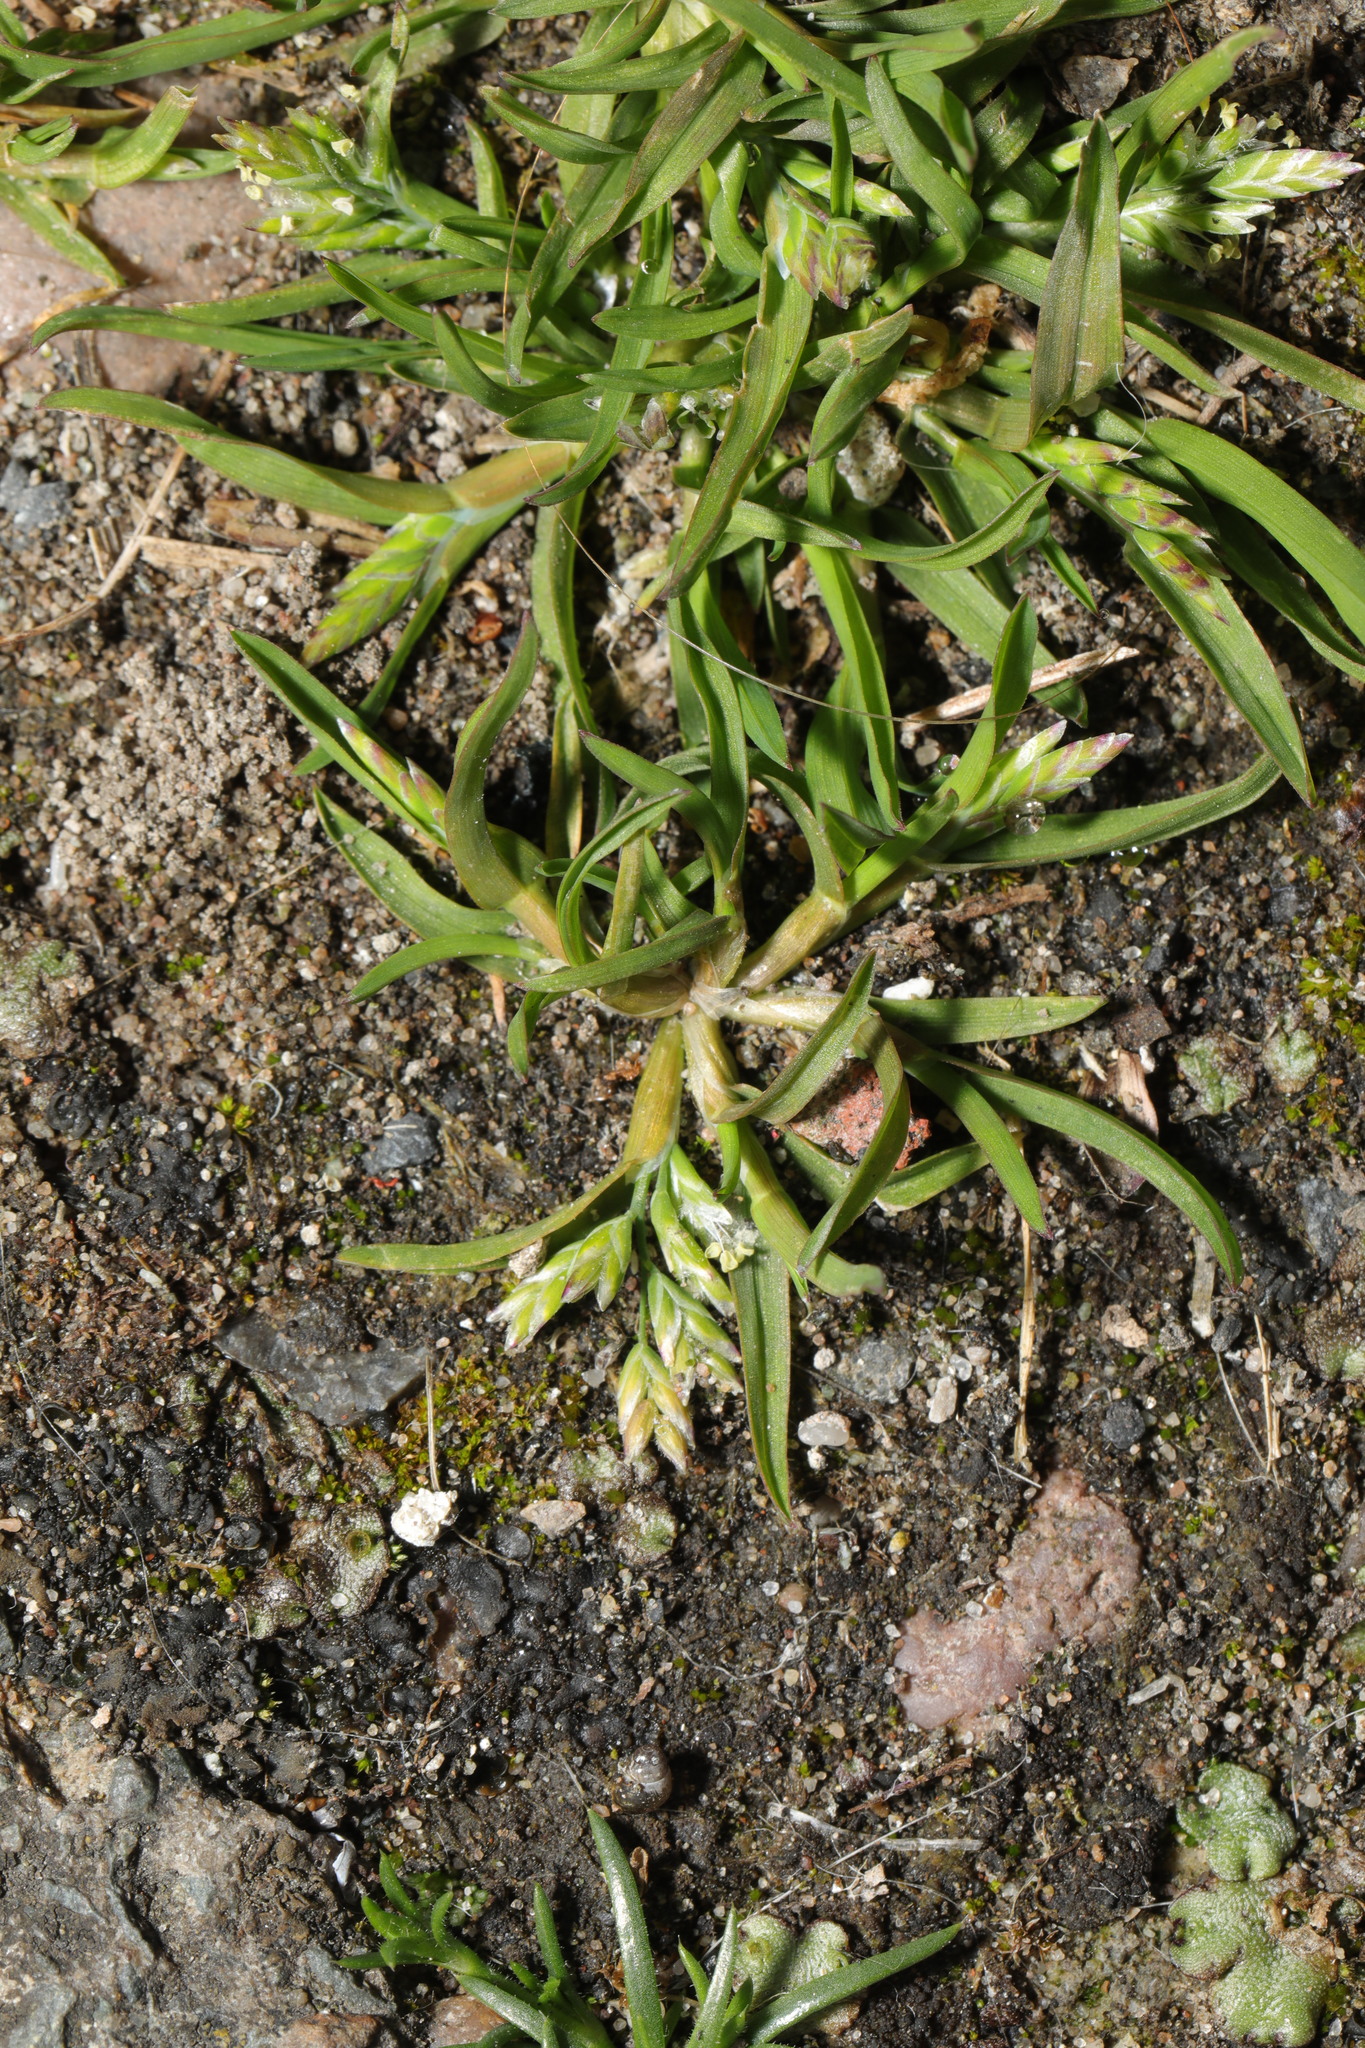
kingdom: Plantae
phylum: Tracheophyta
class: Liliopsida
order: Poales
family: Poaceae
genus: Poa
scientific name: Poa annua
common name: Annual bluegrass
